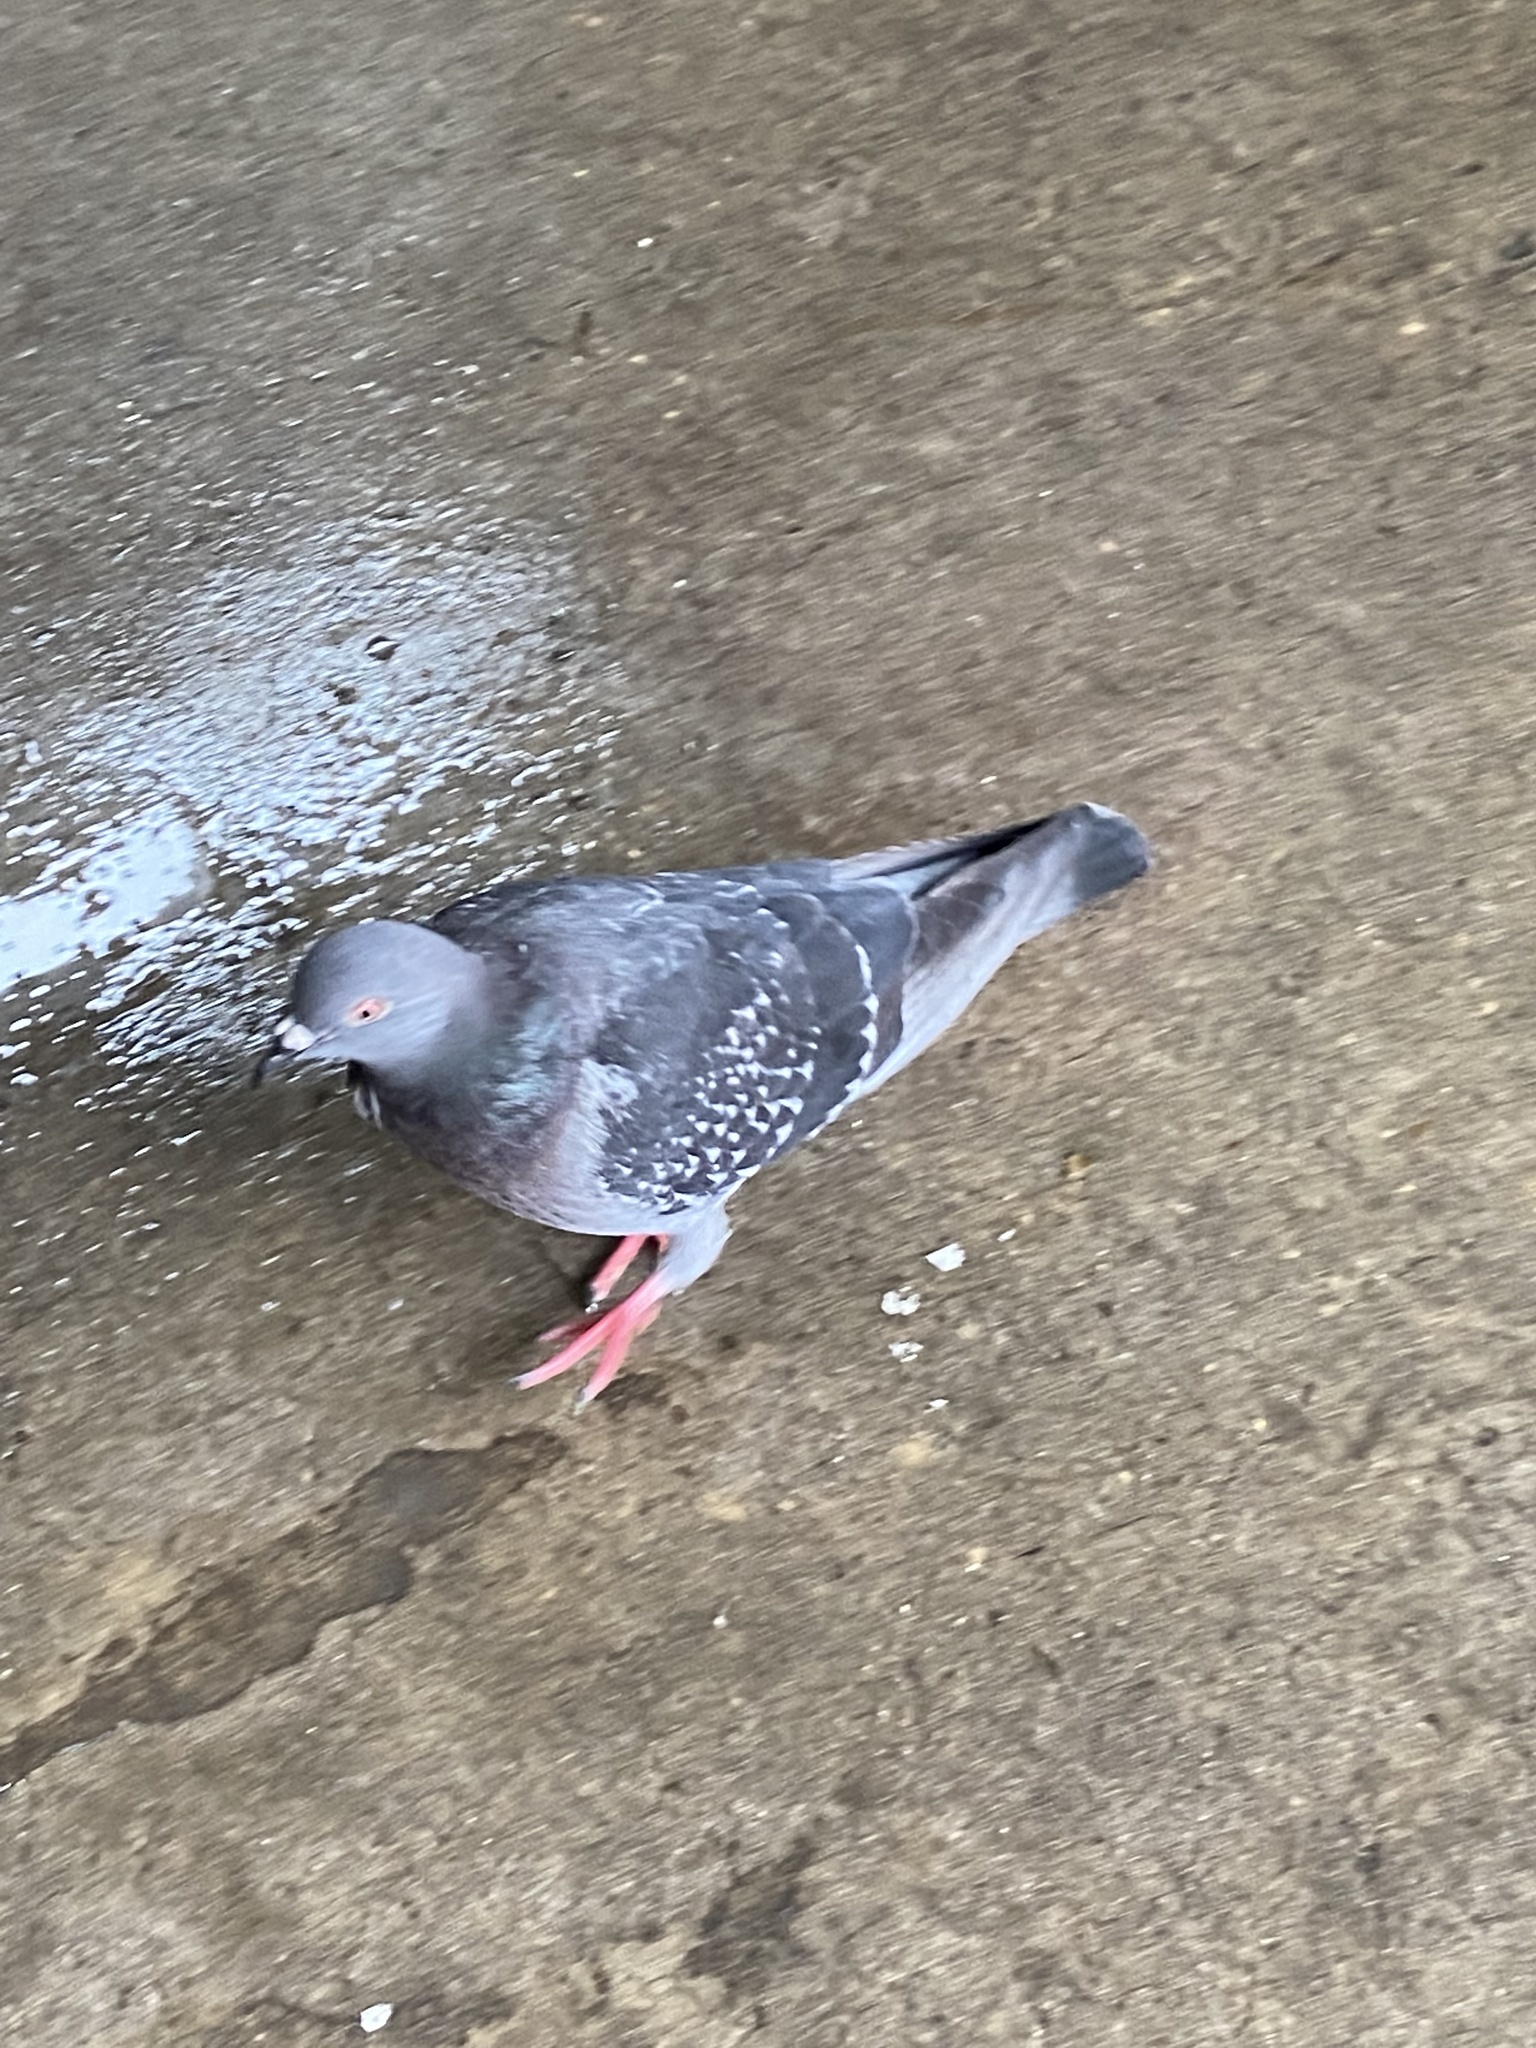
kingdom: Animalia
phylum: Chordata
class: Aves
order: Columbiformes
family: Columbidae
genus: Columba
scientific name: Columba livia
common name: Rock pigeon
